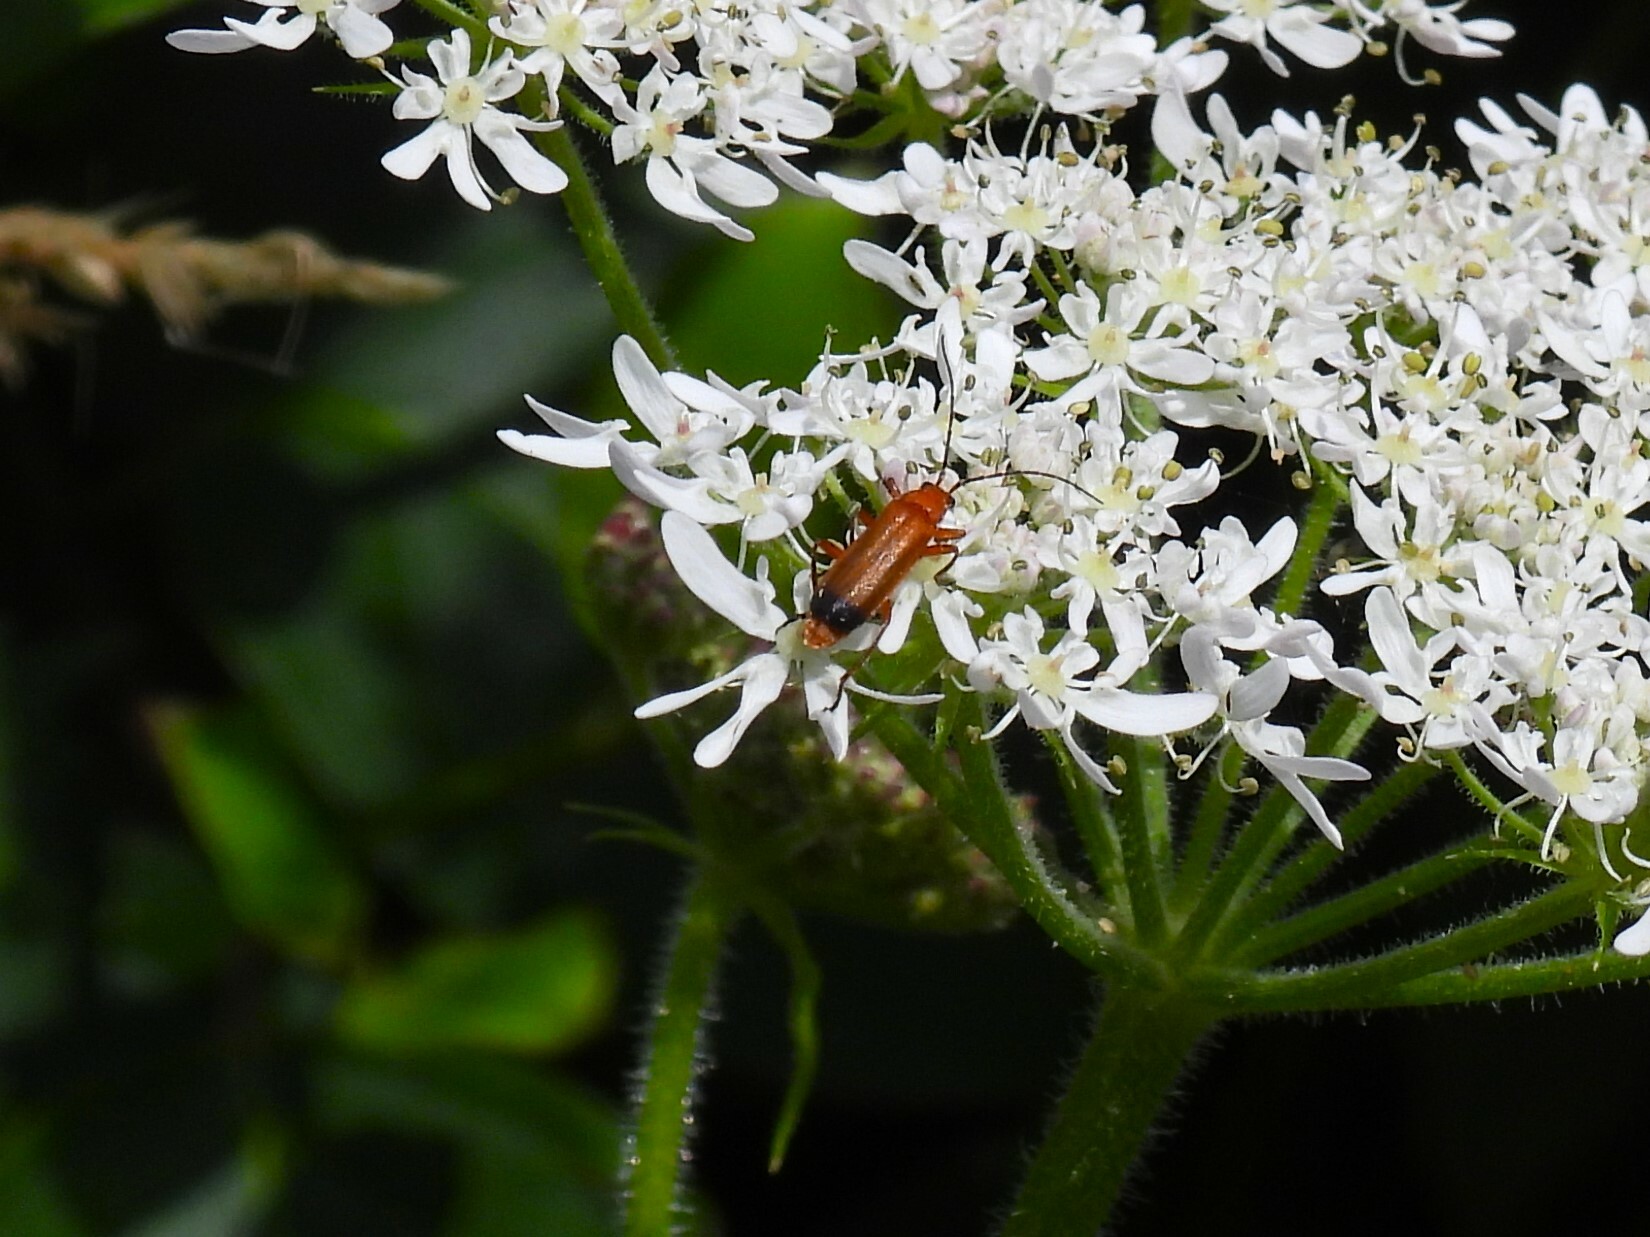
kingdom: Animalia
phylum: Arthropoda
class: Insecta
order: Coleoptera
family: Cantharidae
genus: Rhagonycha
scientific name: Rhagonycha fulva
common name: Common red soldier beetle
